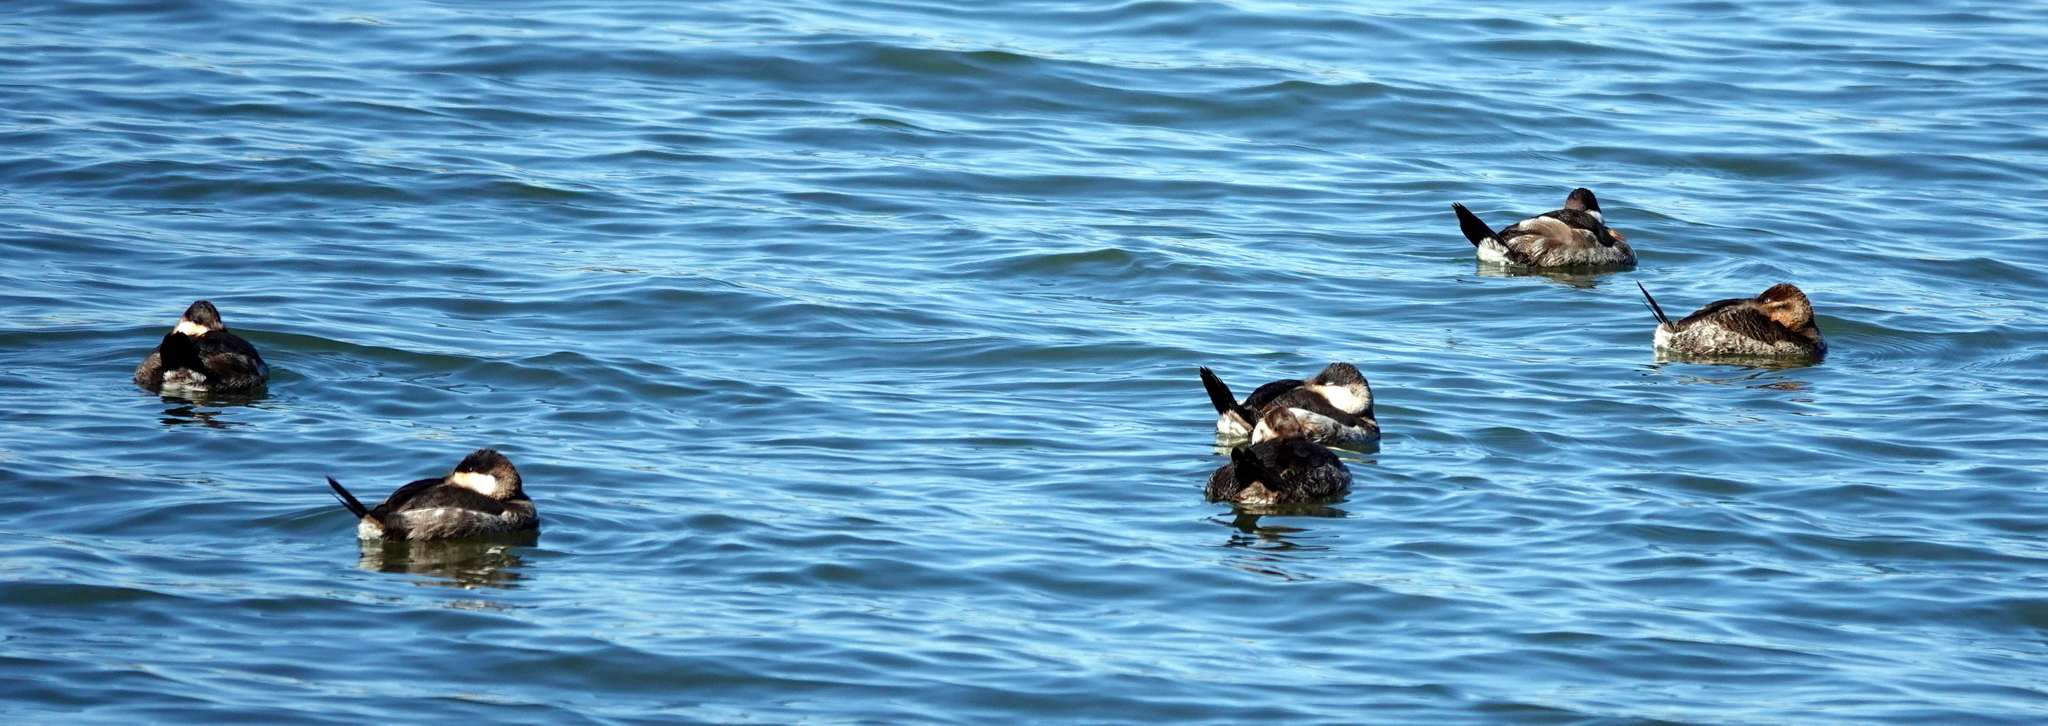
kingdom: Animalia
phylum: Chordata
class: Aves
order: Anseriformes
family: Anatidae
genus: Oxyura
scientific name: Oxyura jamaicensis
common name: Ruddy duck
